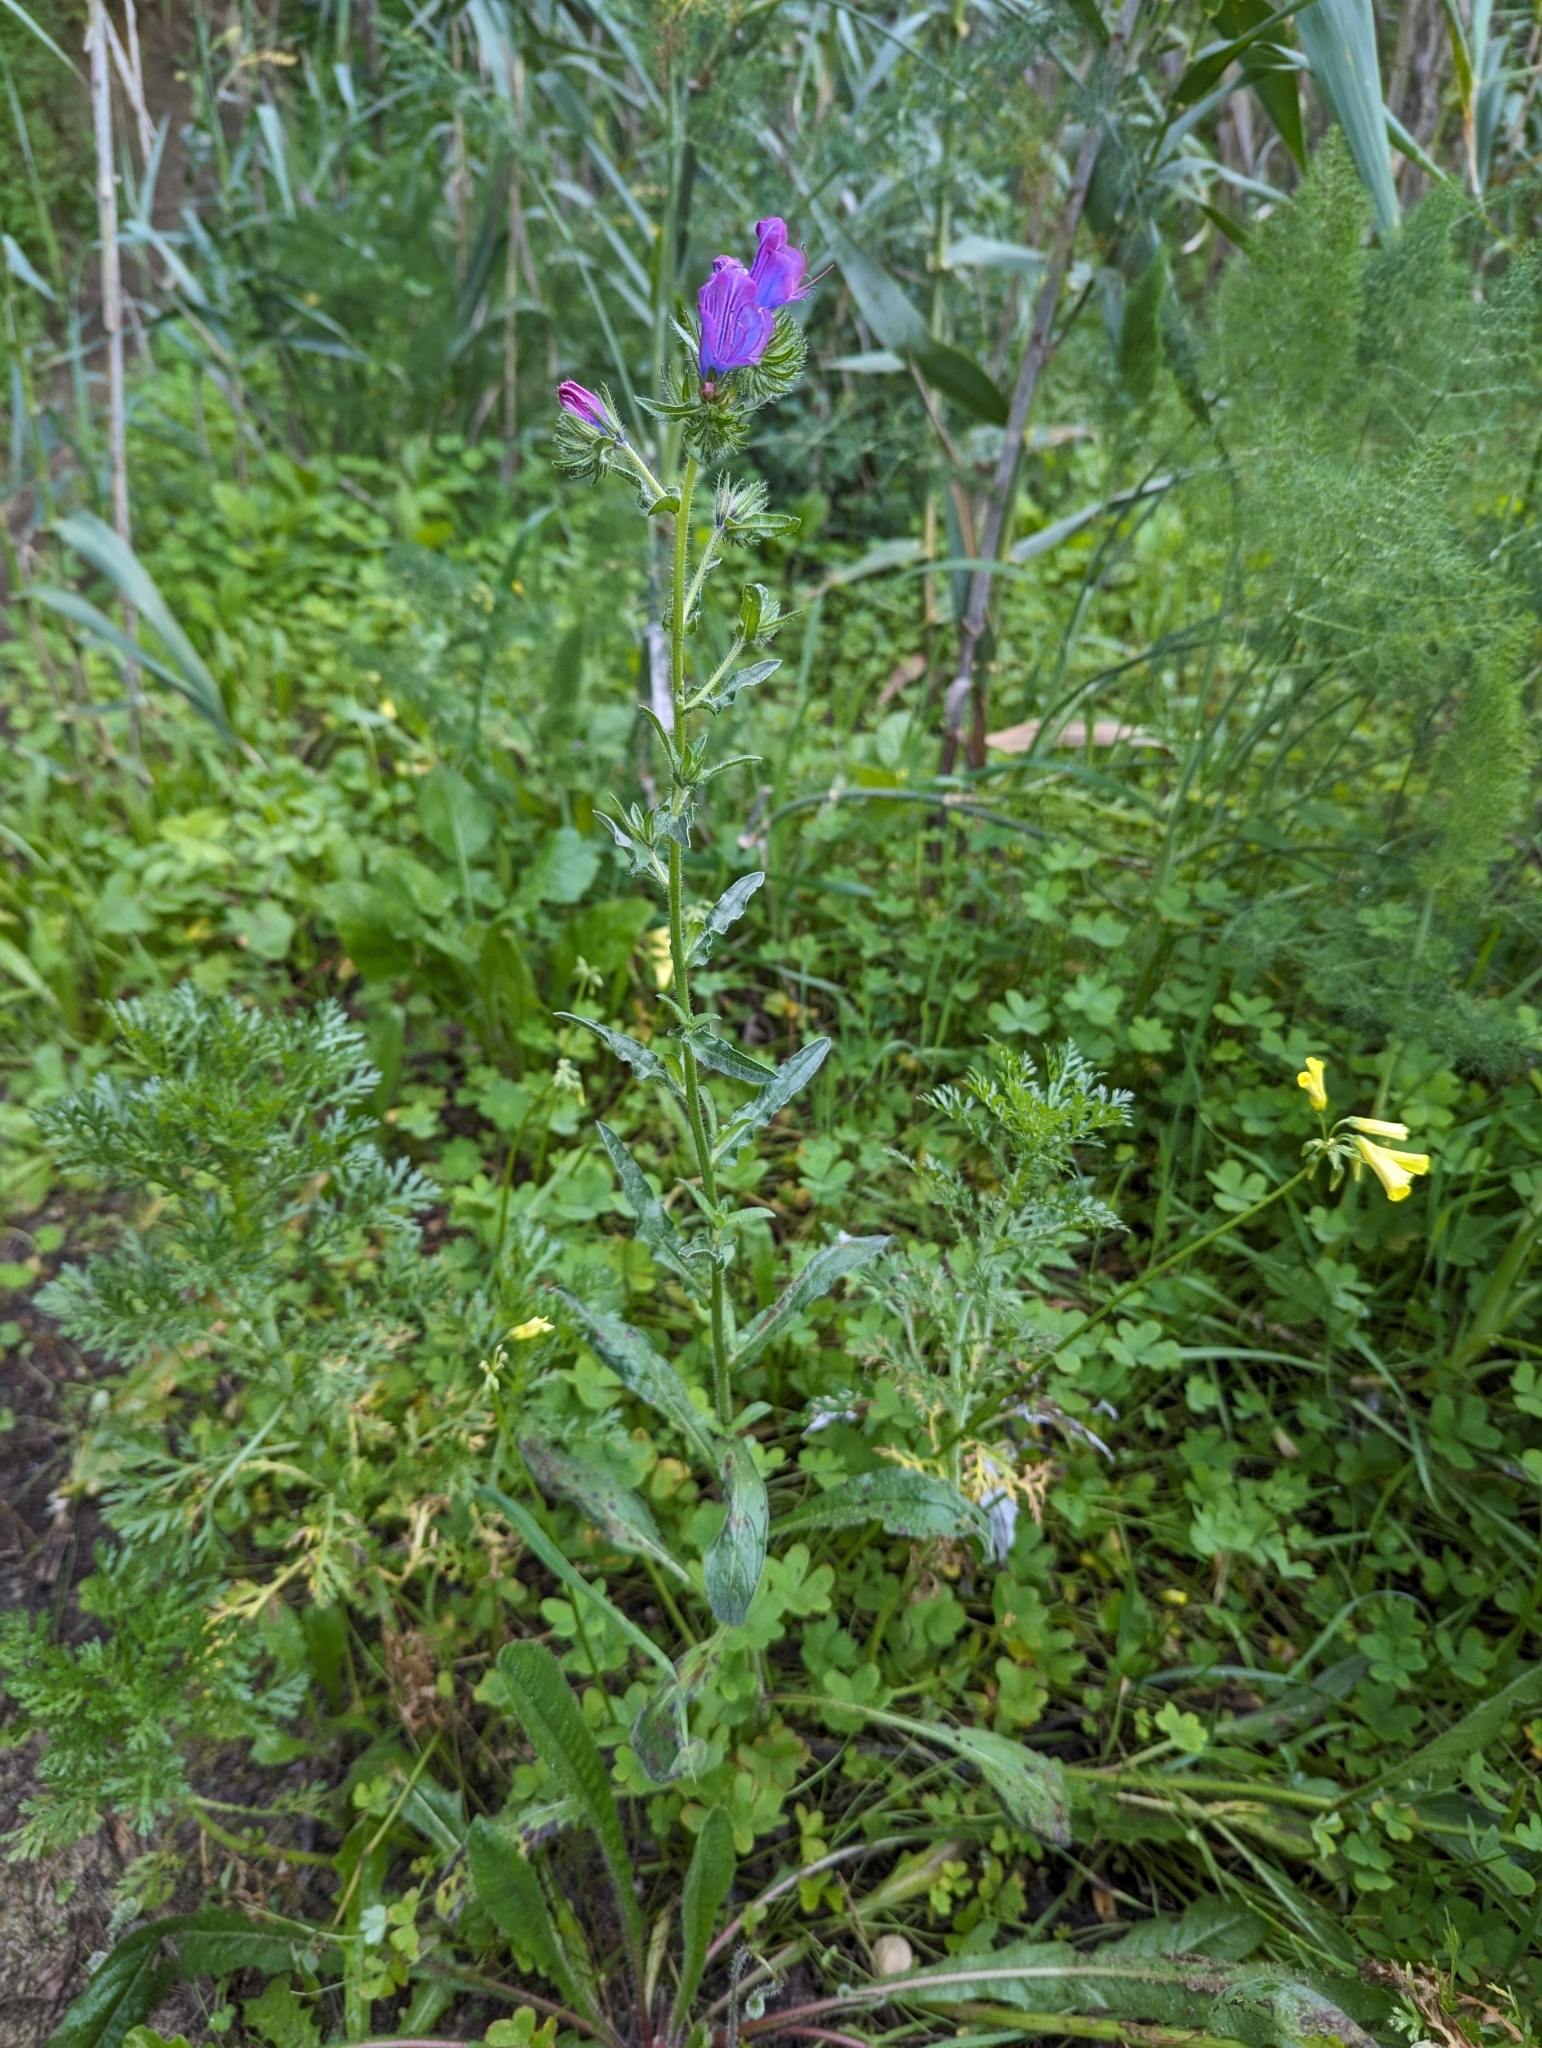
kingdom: Plantae
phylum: Tracheophyta
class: Magnoliopsida
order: Boraginales
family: Boraginaceae
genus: Echium
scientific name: Echium plantagineum
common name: Purple viper's-bugloss
